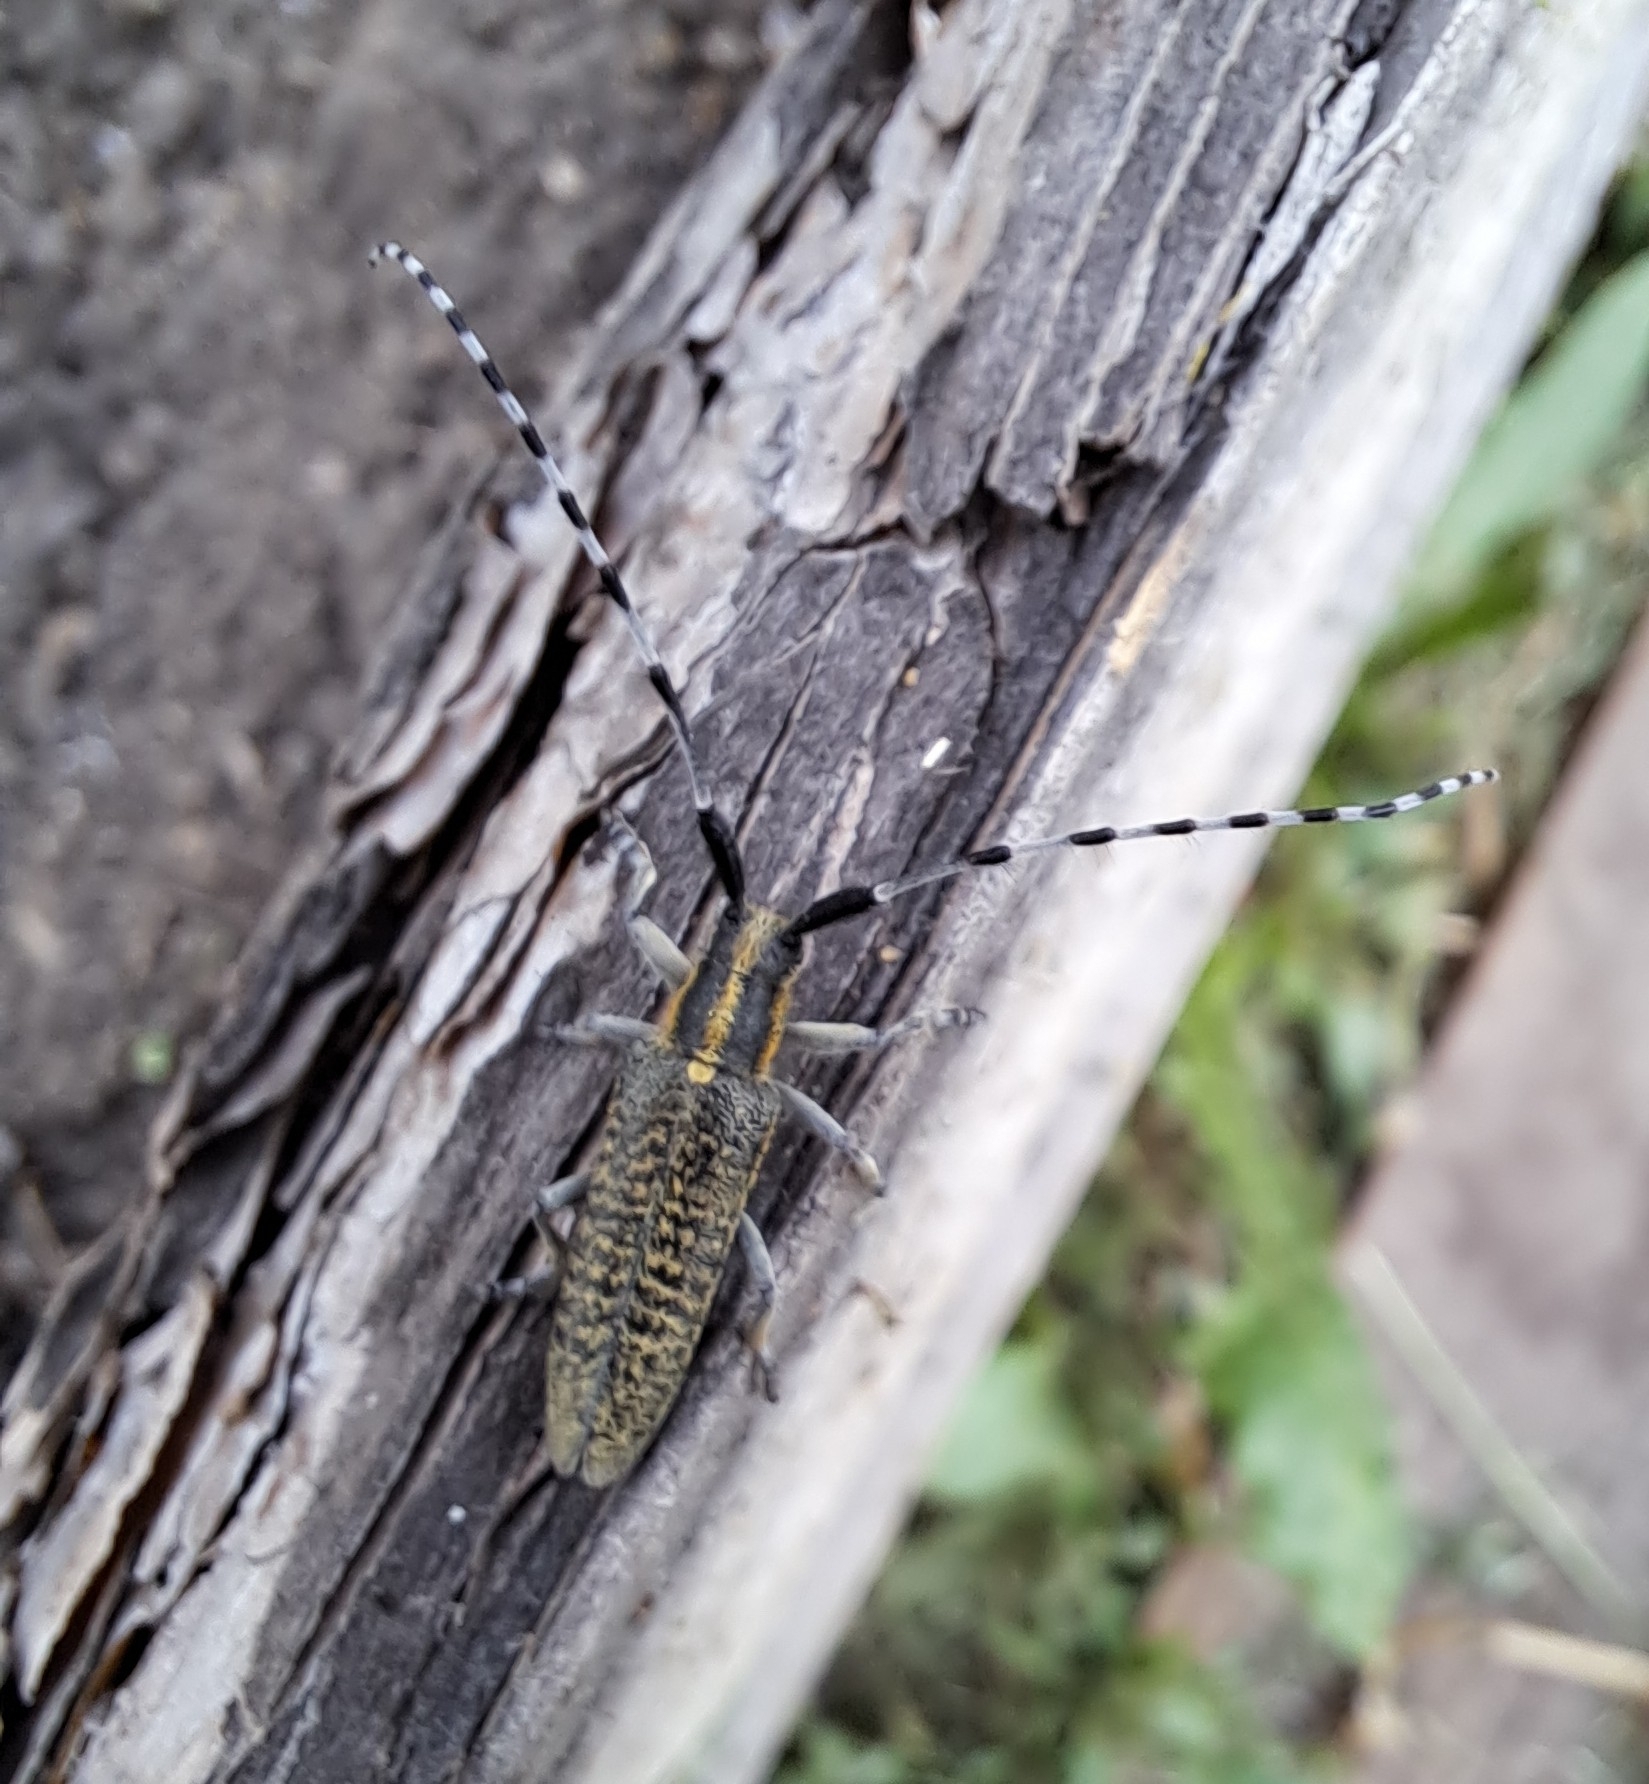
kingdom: Animalia
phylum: Arthropoda
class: Insecta
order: Coleoptera
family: Cerambycidae
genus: Agapanthia
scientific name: Agapanthia villosoviridescens
